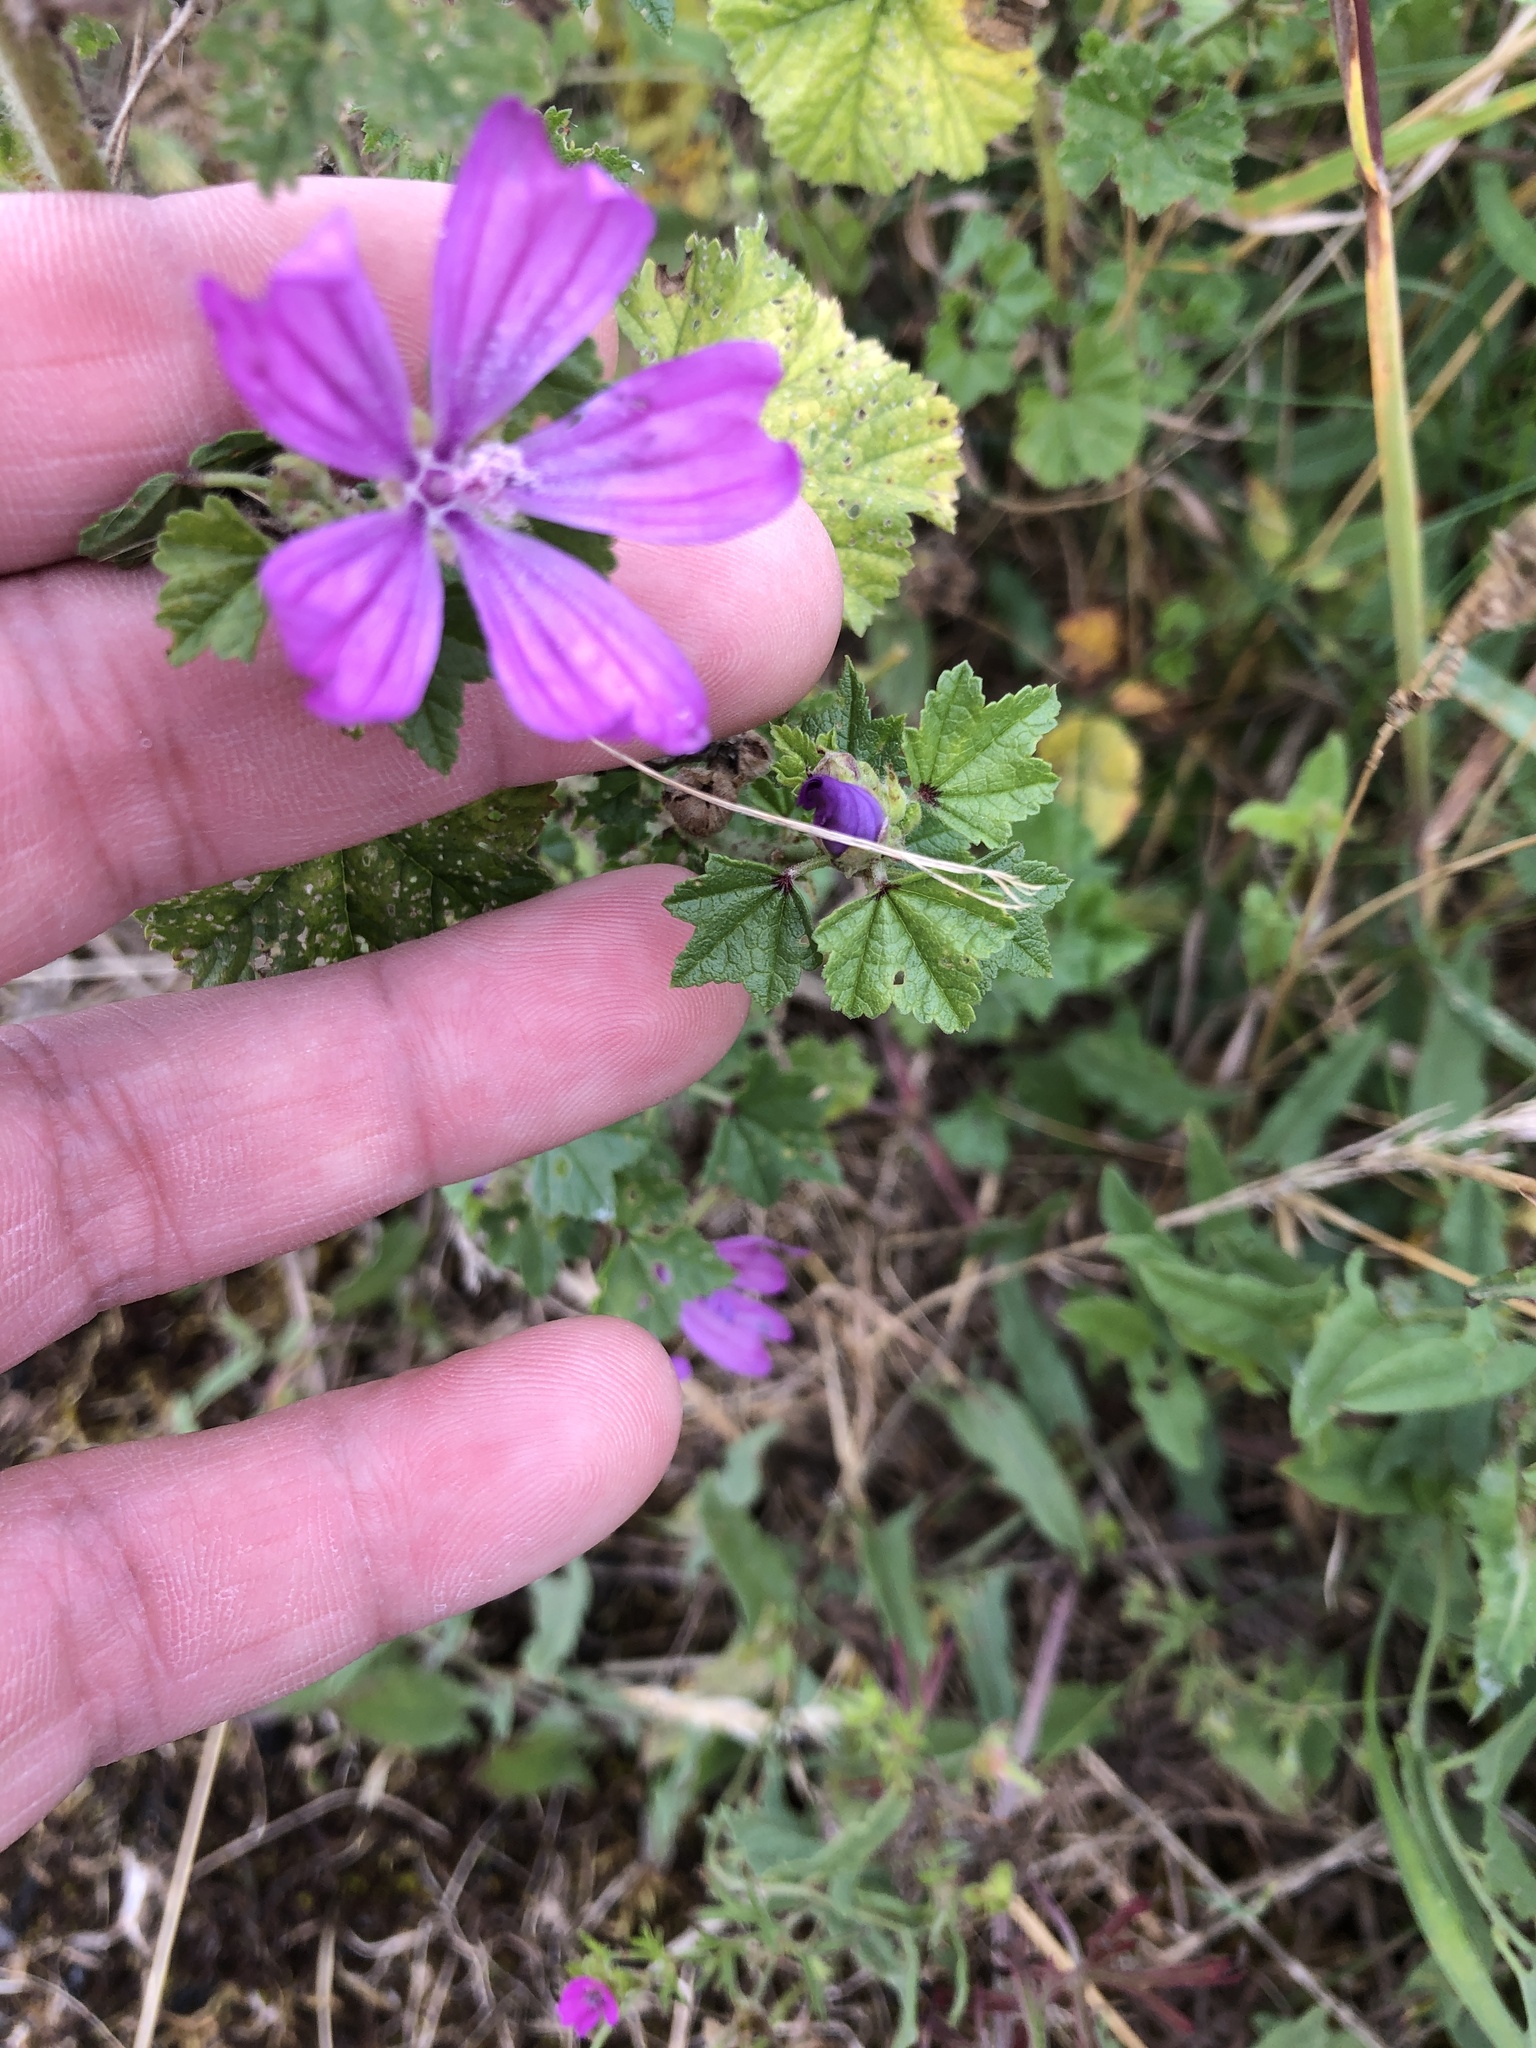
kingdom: Plantae
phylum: Tracheophyta
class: Magnoliopsida
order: Malvales
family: Malvaceae
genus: Malva
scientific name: Malva sylvestris
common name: Common mallow
